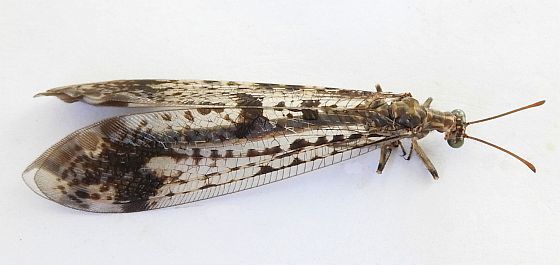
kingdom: Animalia
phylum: Arthropoda
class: Insecta
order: Neuroptera
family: Myrmeleontidae
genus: Glenurus
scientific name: Glenurus snowii
